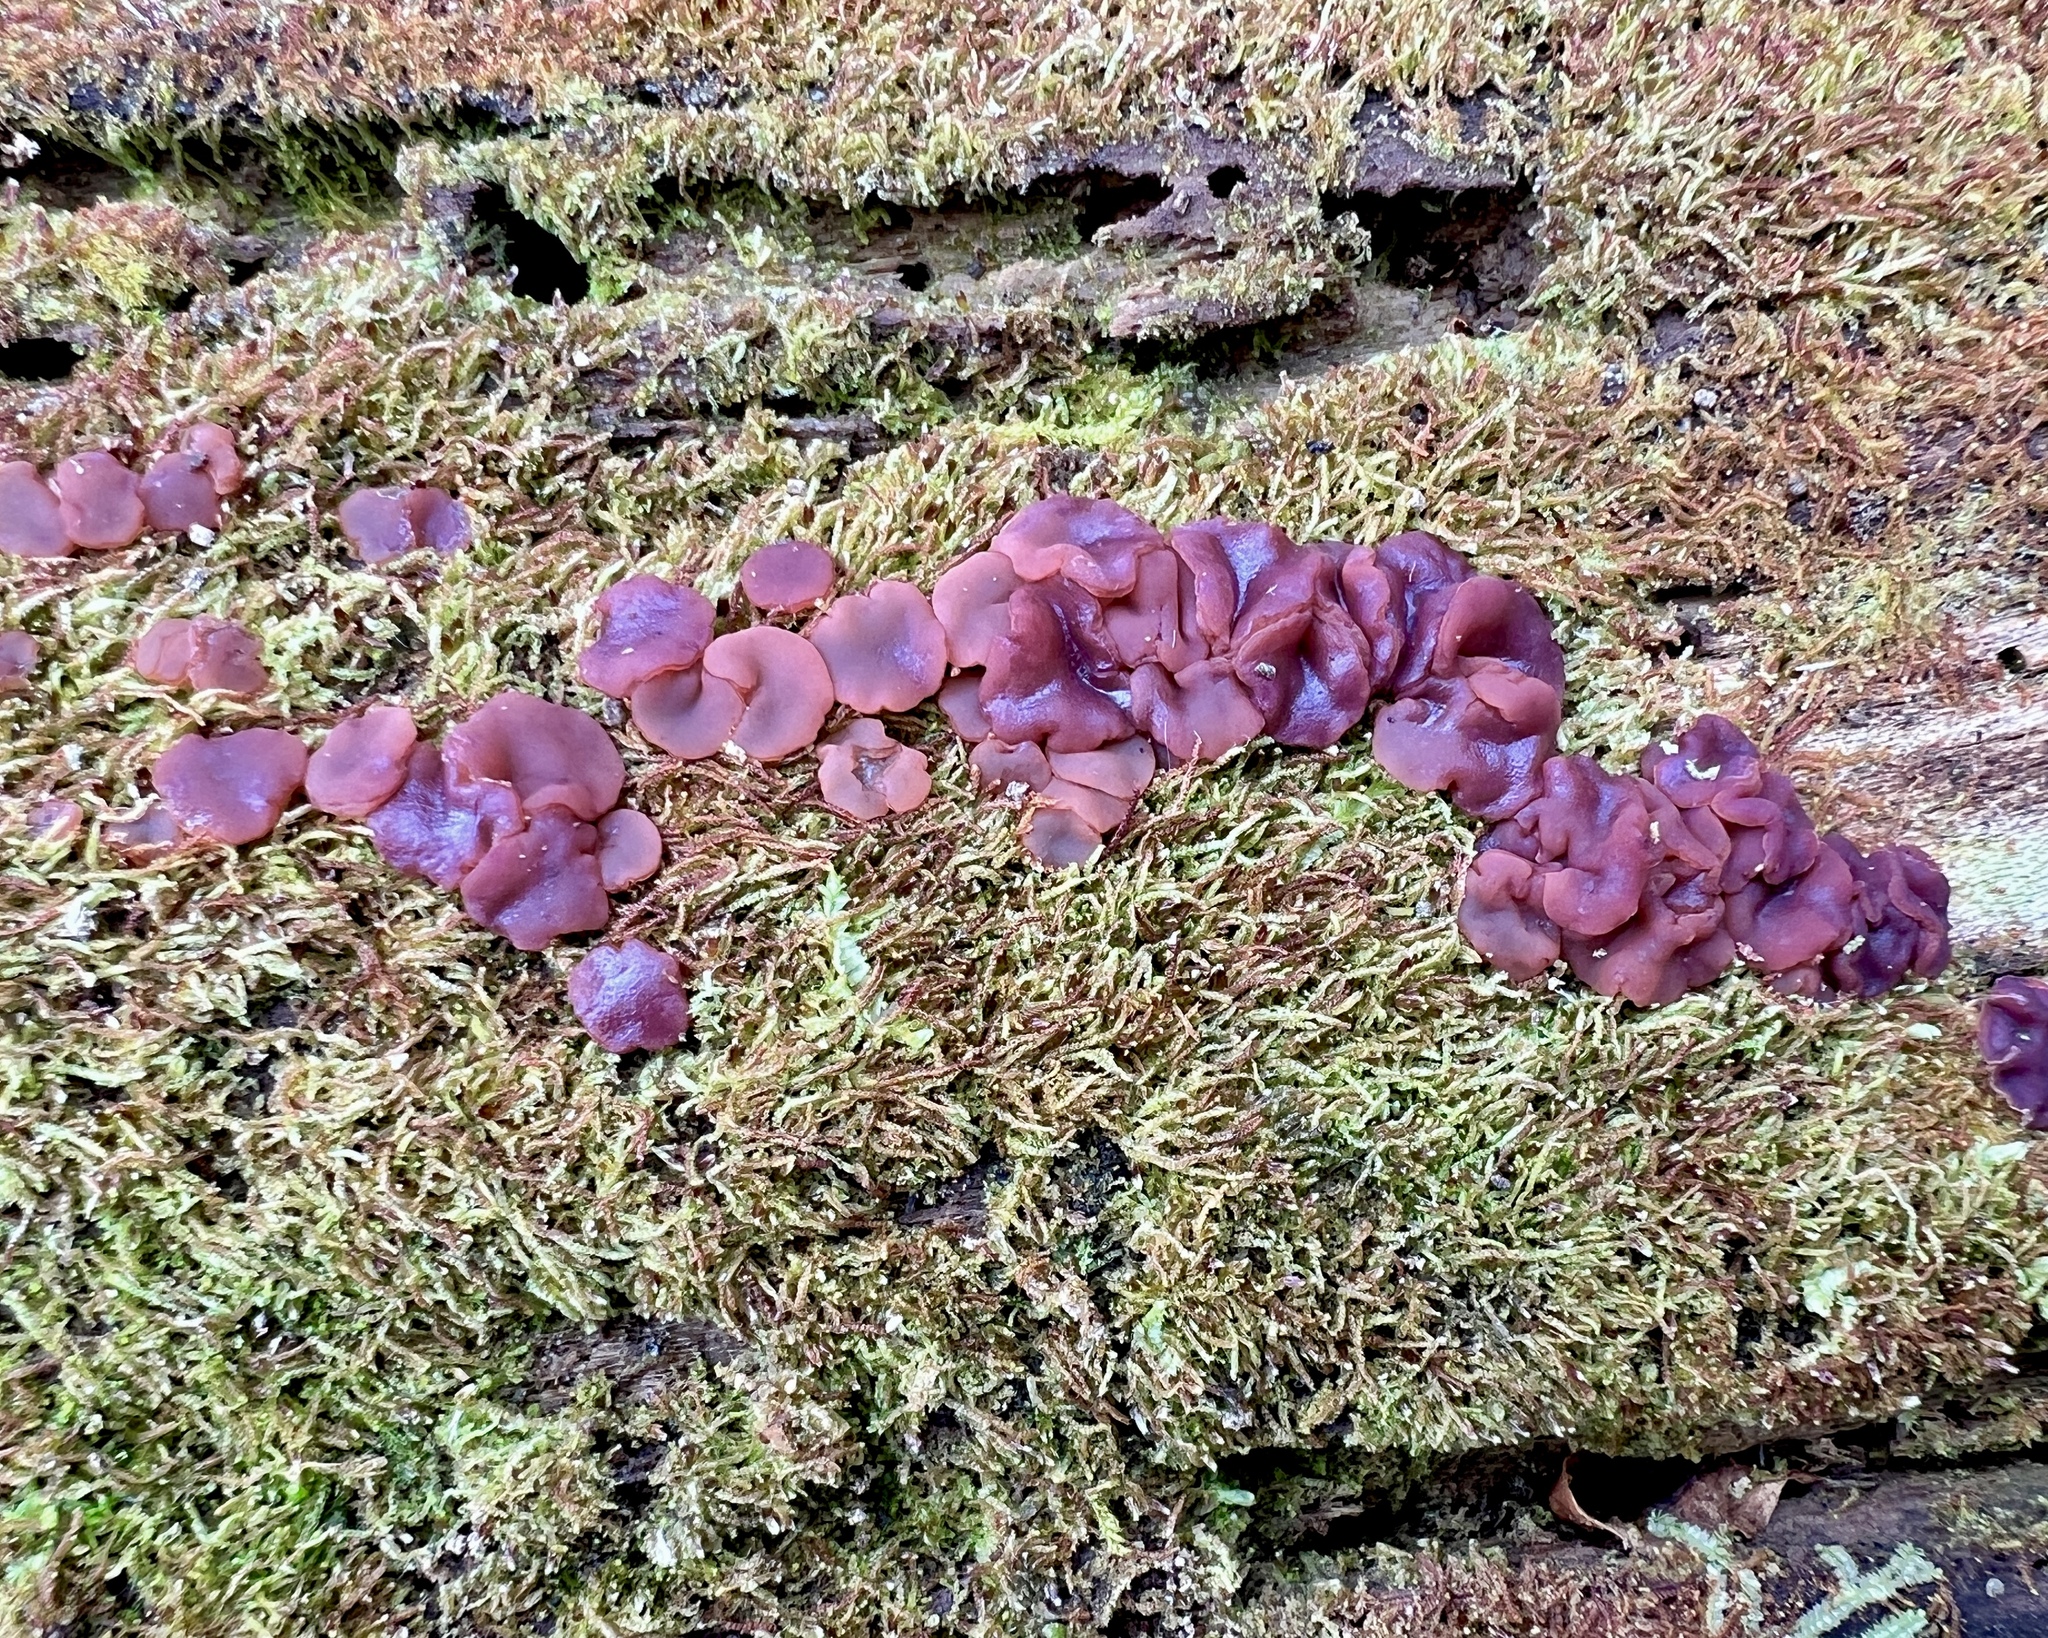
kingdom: Fungi
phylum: Ascomycota
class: Leotiomycetes
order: Helotiales
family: Gelatinodiscaceae
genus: Ascocoryne
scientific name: Ascocoryne cylichnium
